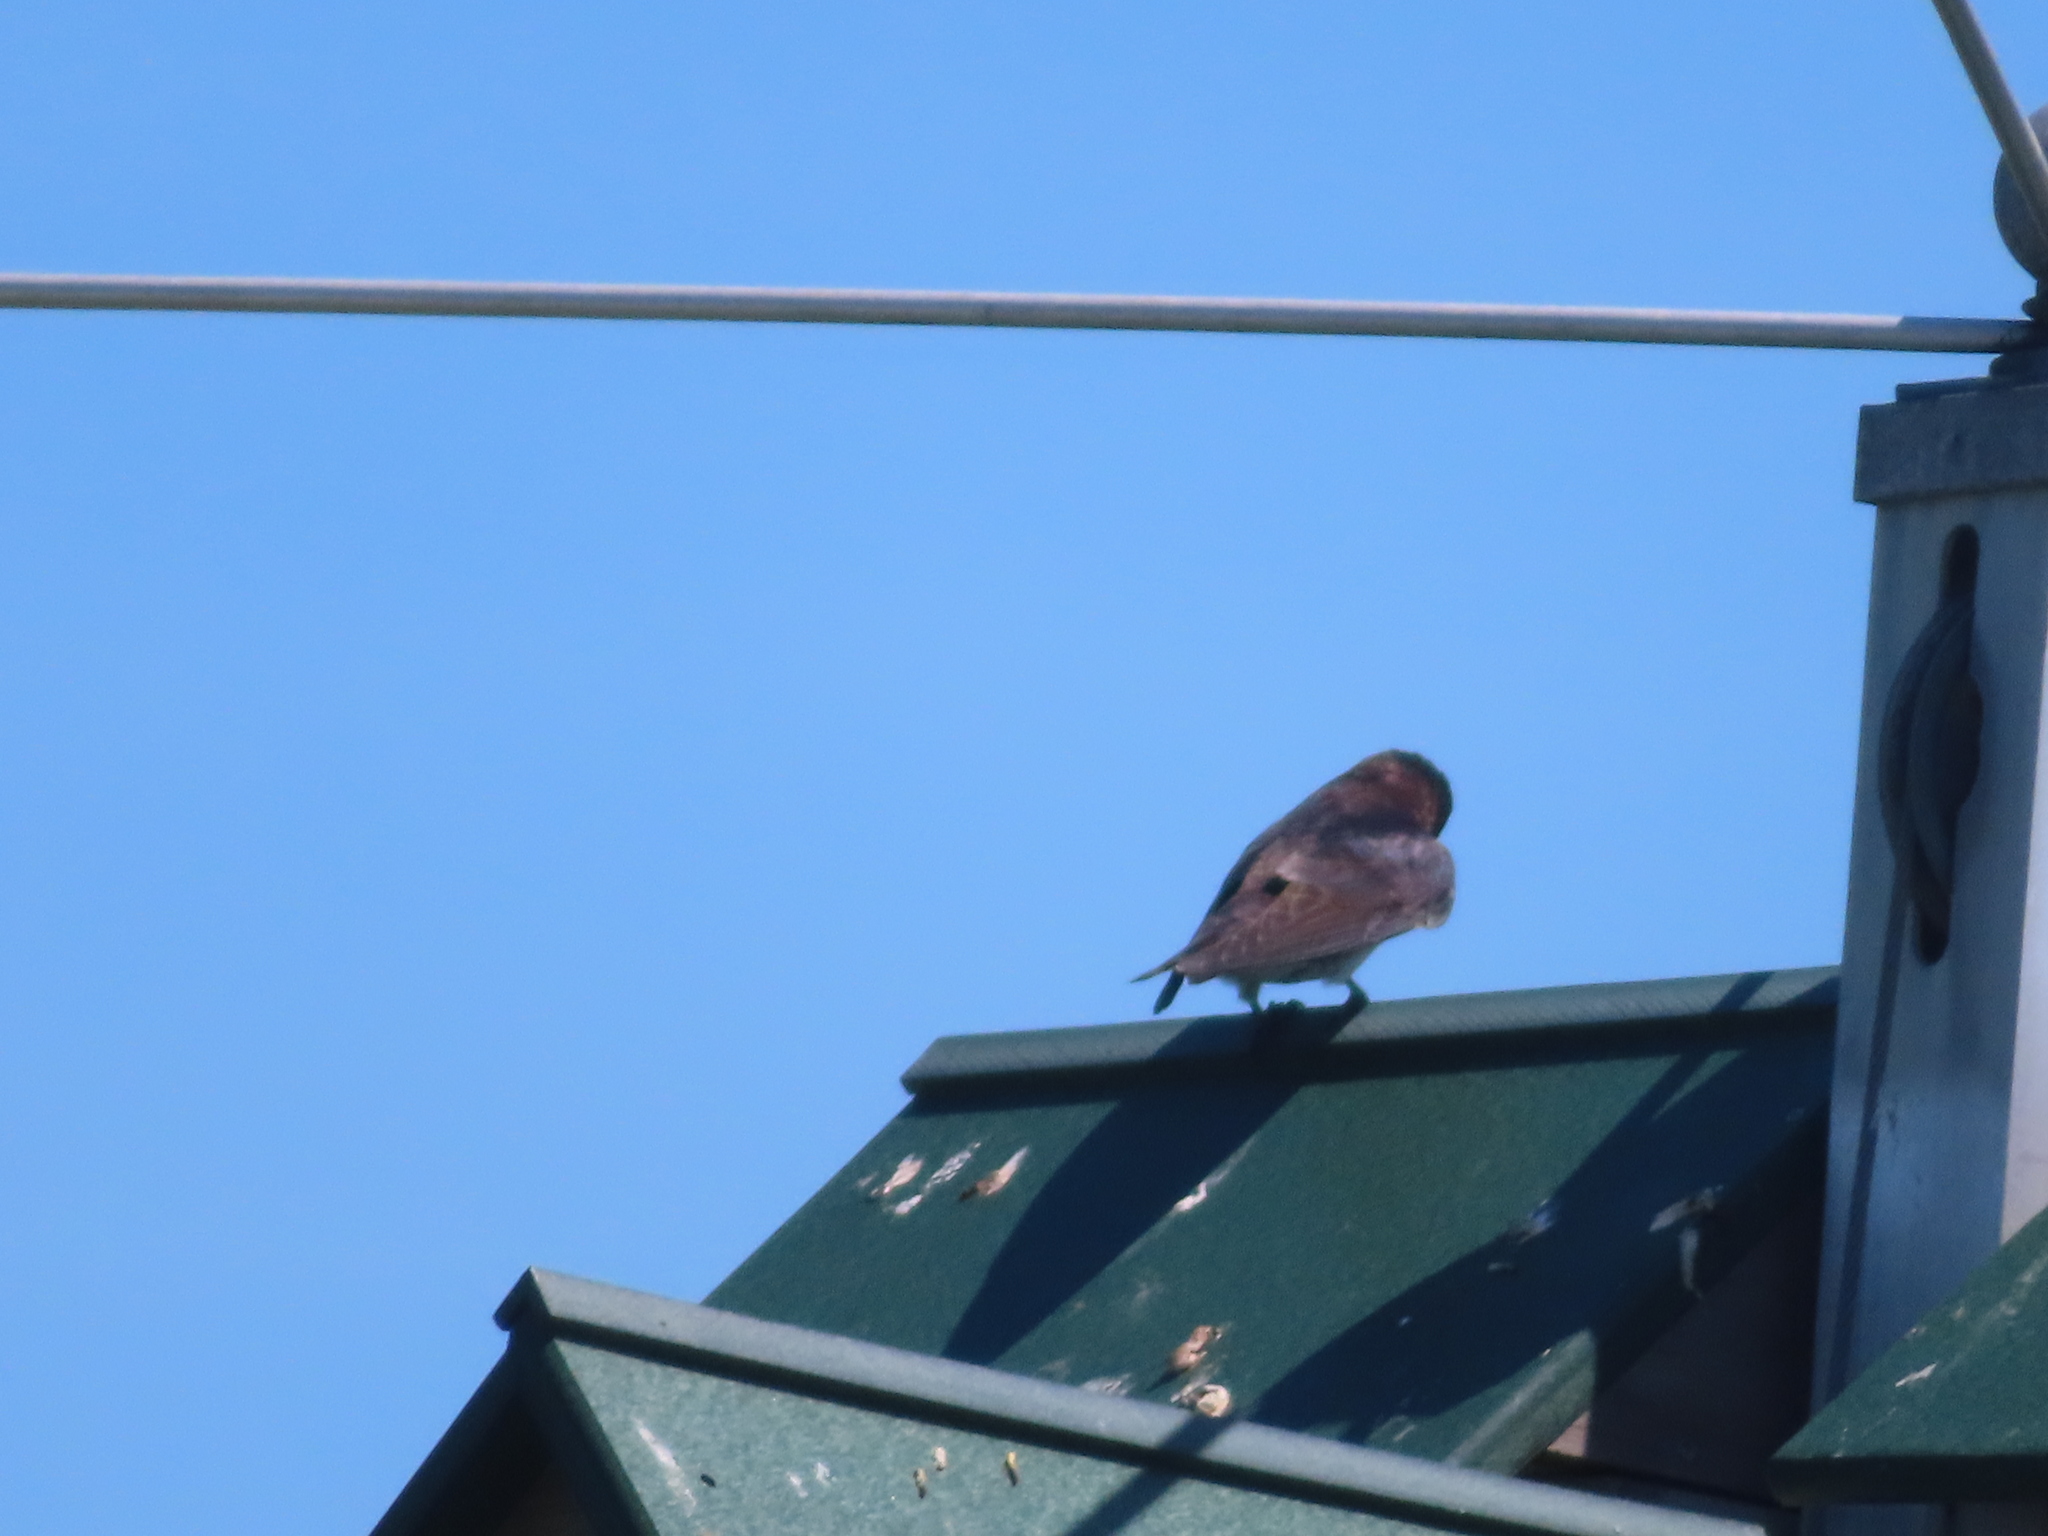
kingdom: Animalia
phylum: Chordata
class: Aves
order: Passeriformes
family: Hirundinidae
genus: Progne
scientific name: Progne subis
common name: Purple martin
